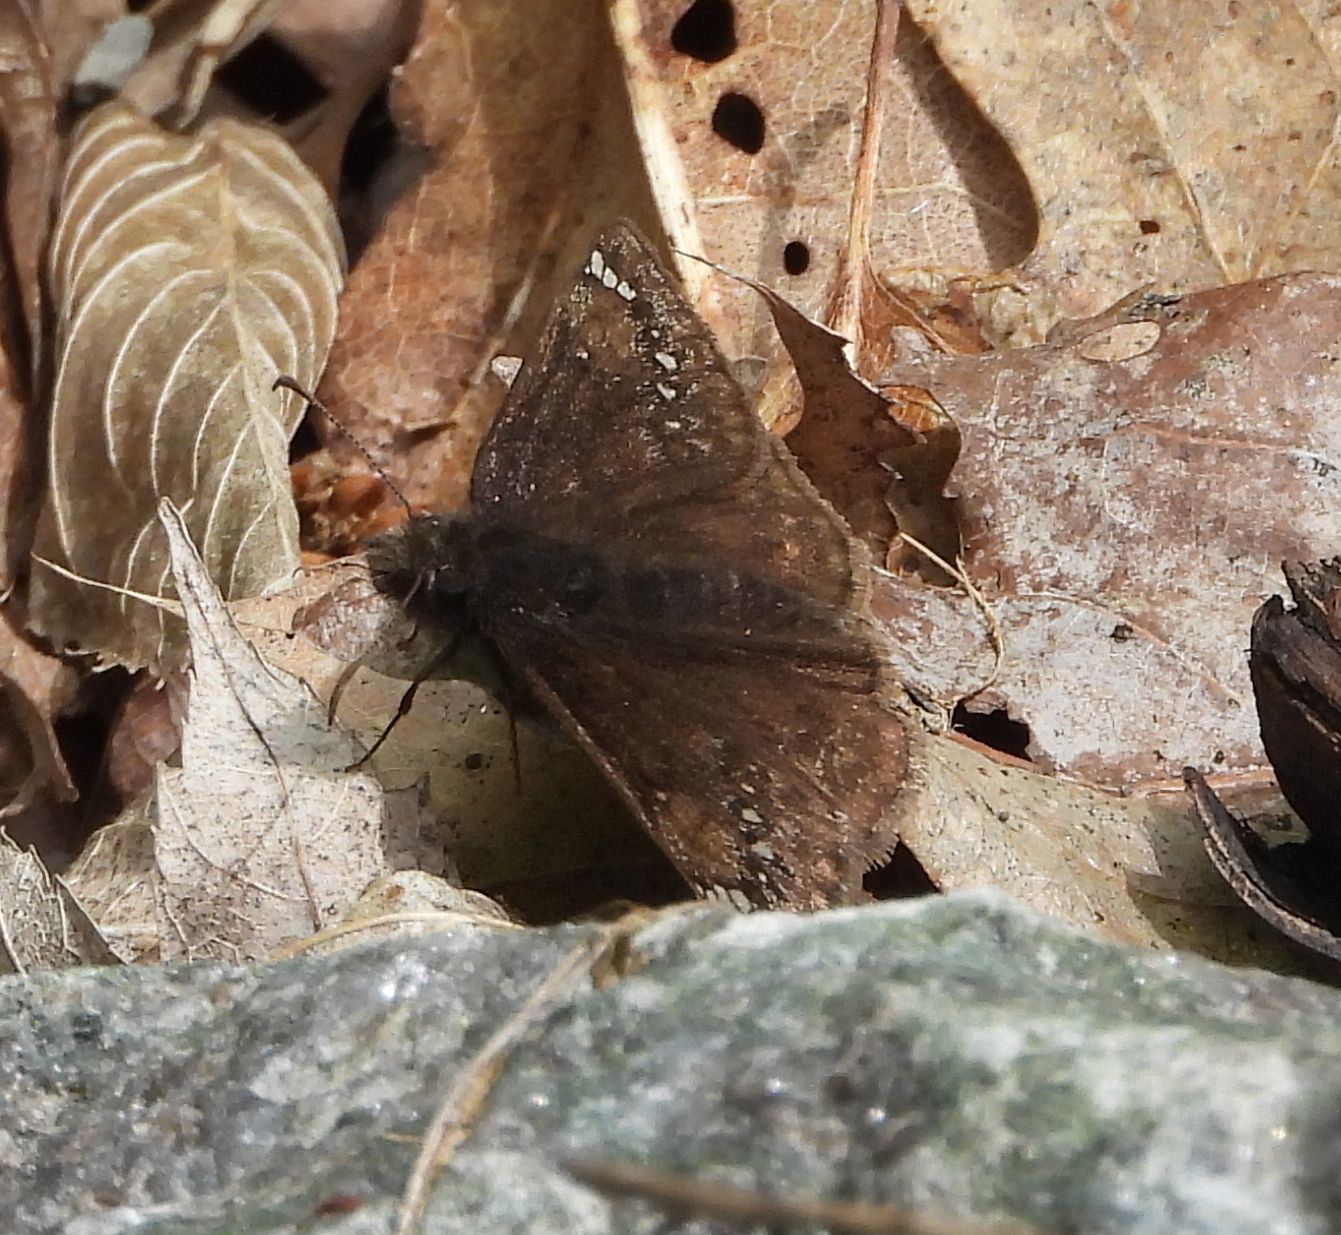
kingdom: Animalia
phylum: Arthropoda
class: Insecta
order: Lepidoptera
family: Hesperiidae
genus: Erynnis
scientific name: Erynnis juvenalis
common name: Juvenal's duskywing
